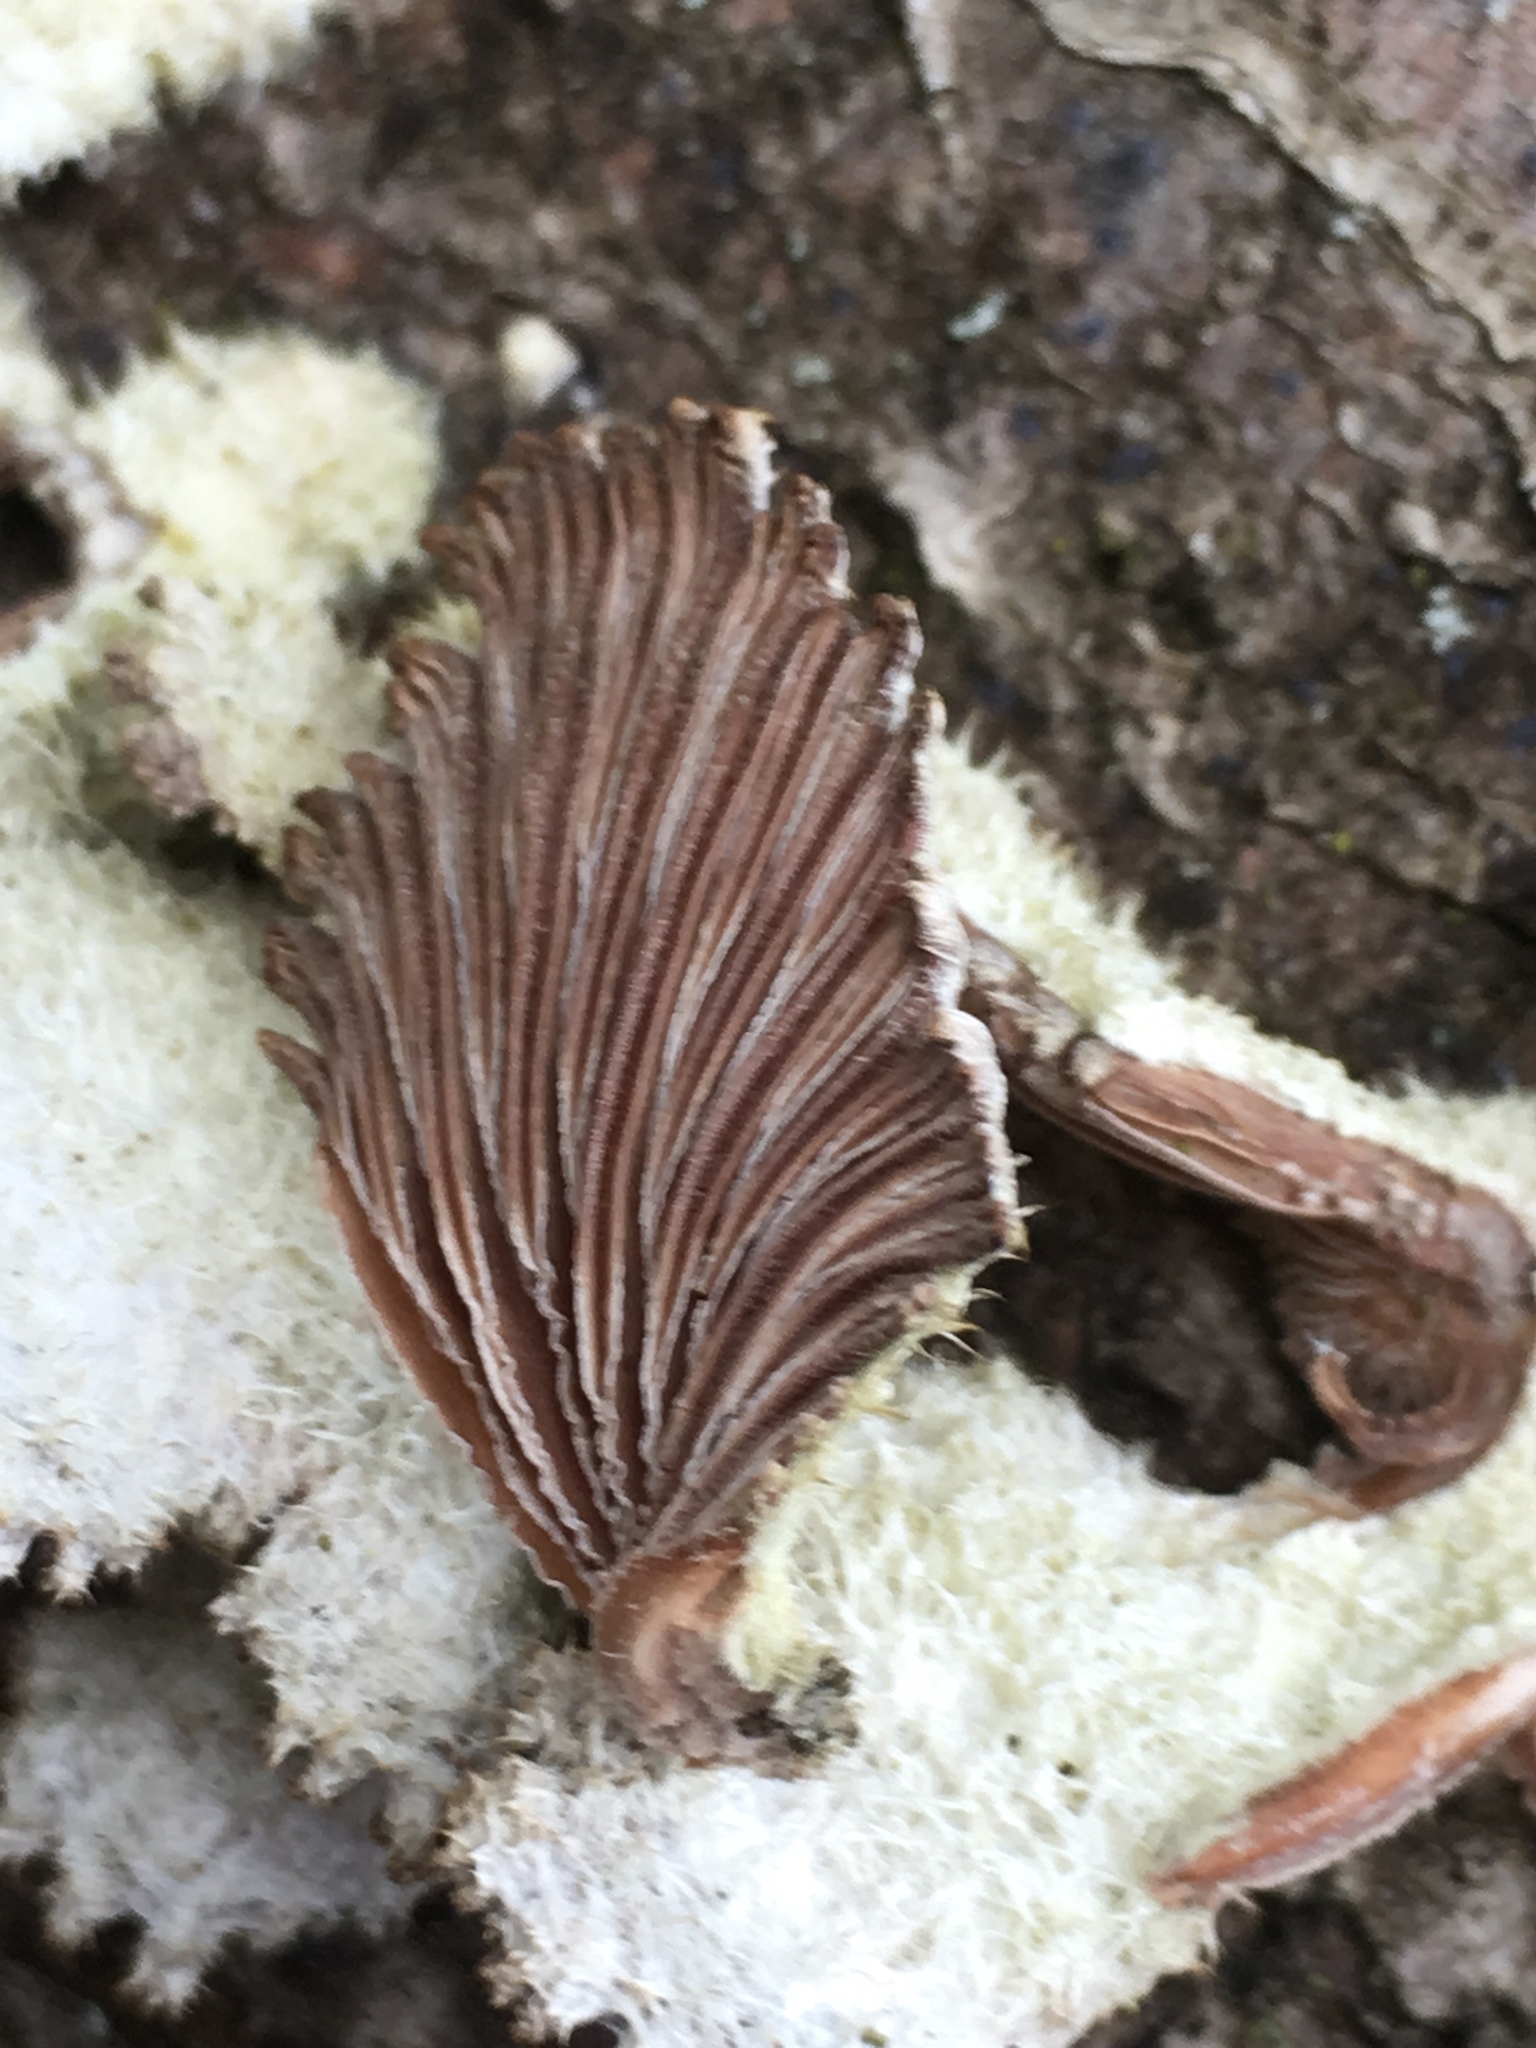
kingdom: Fungi
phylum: Basidiomycota
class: Agaricomycetes
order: Agaricales
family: Schizophyllaceae
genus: Schizophyllum
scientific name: Schizophyllum commune
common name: Common porecrust
